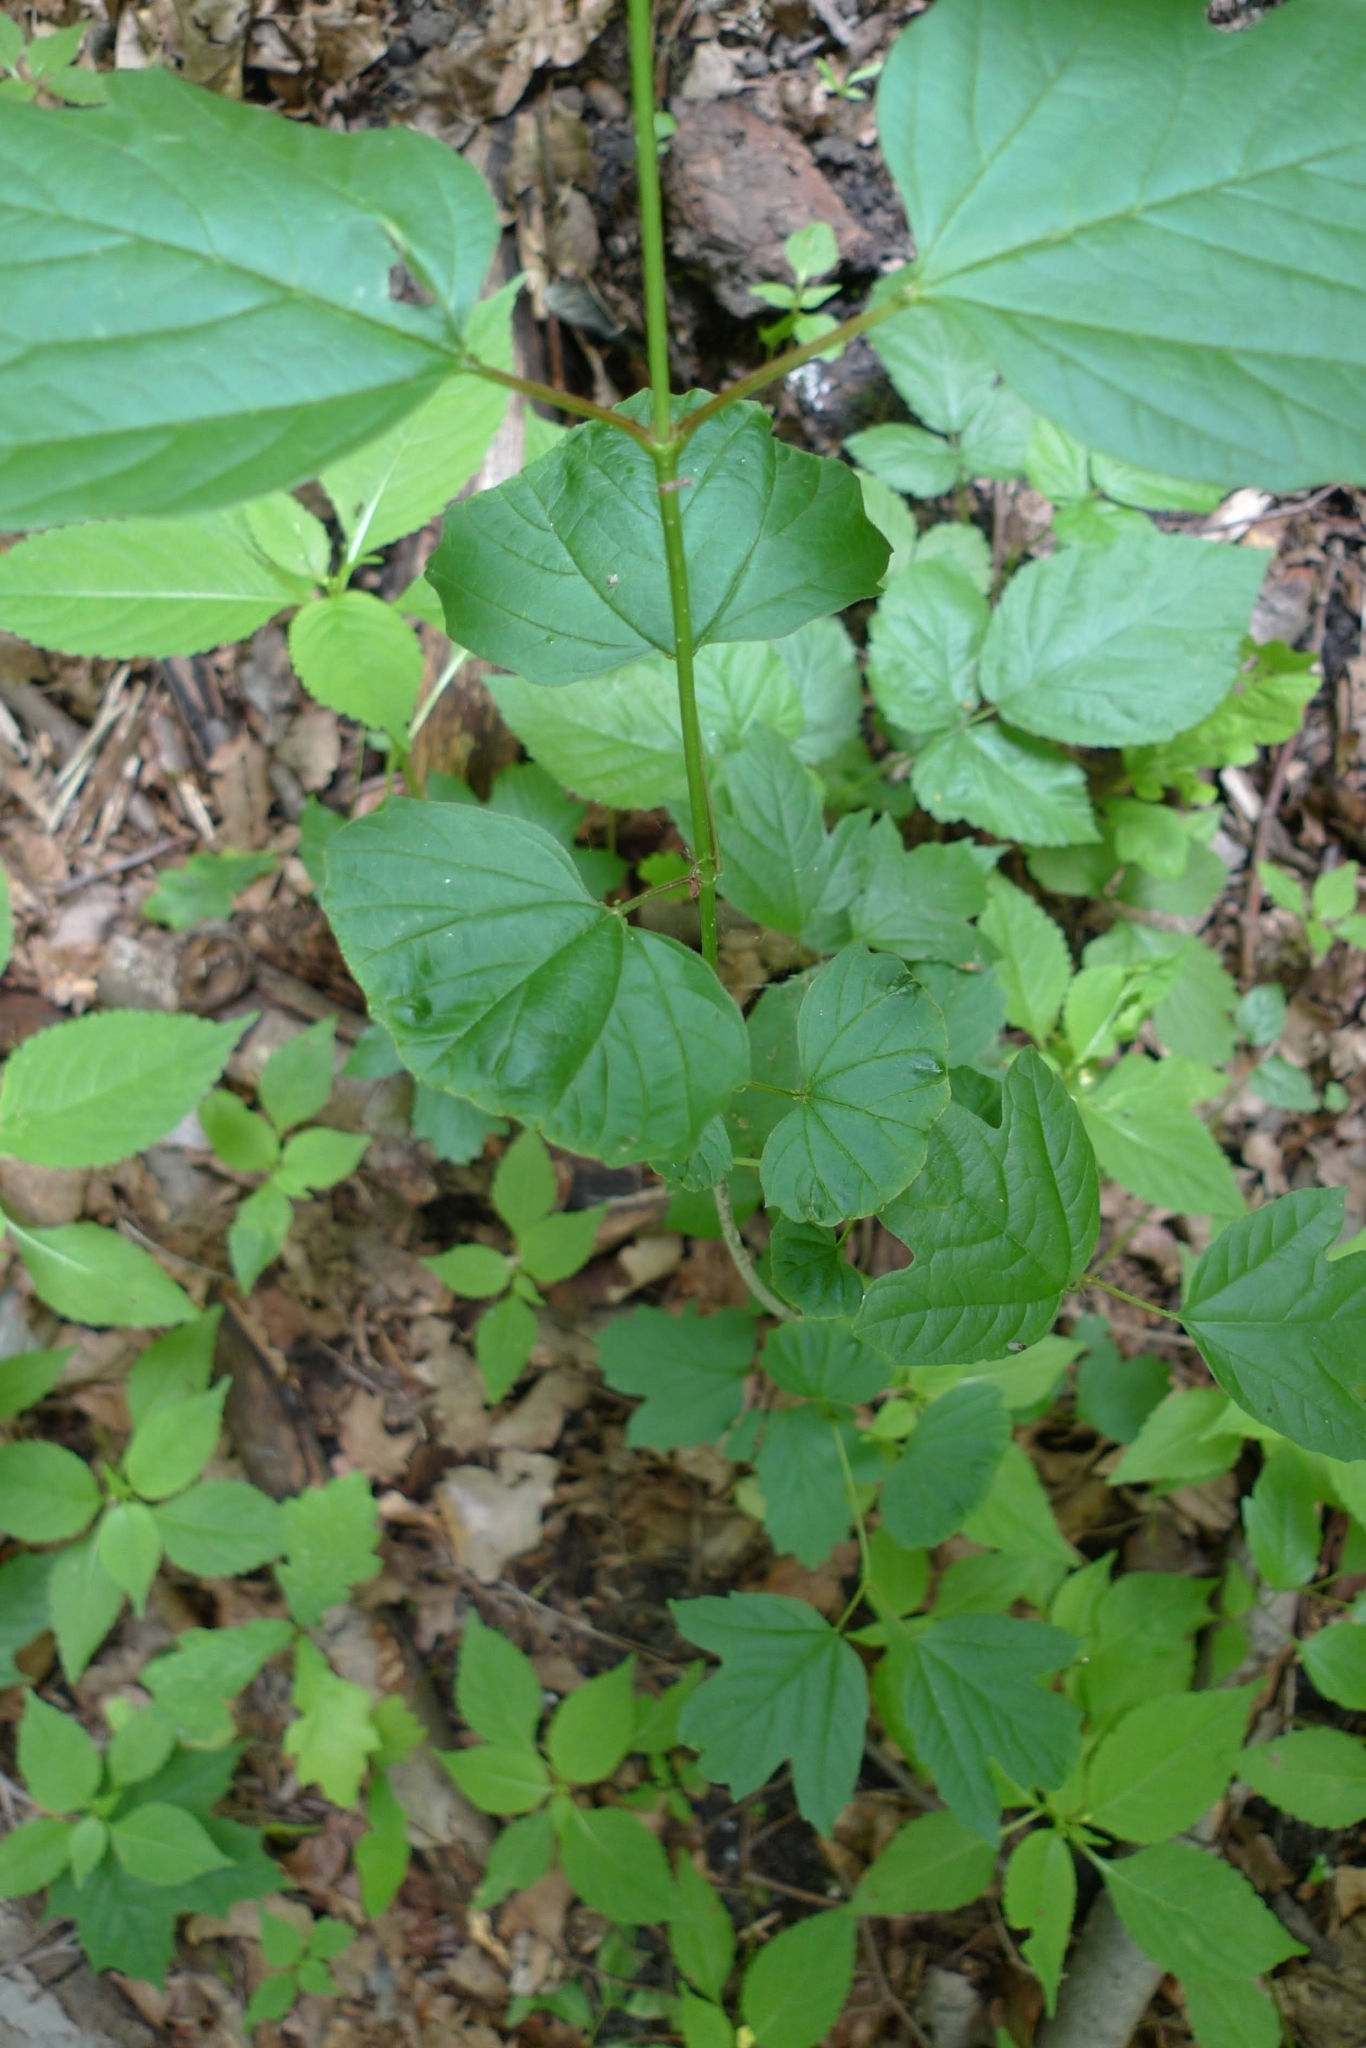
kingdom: Plantae
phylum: Tracheophyta
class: Magnoliopsida
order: Dipsacales
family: Viburnaceae
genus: Viburnum
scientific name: Viburnum opulus
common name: Guelder-rose
